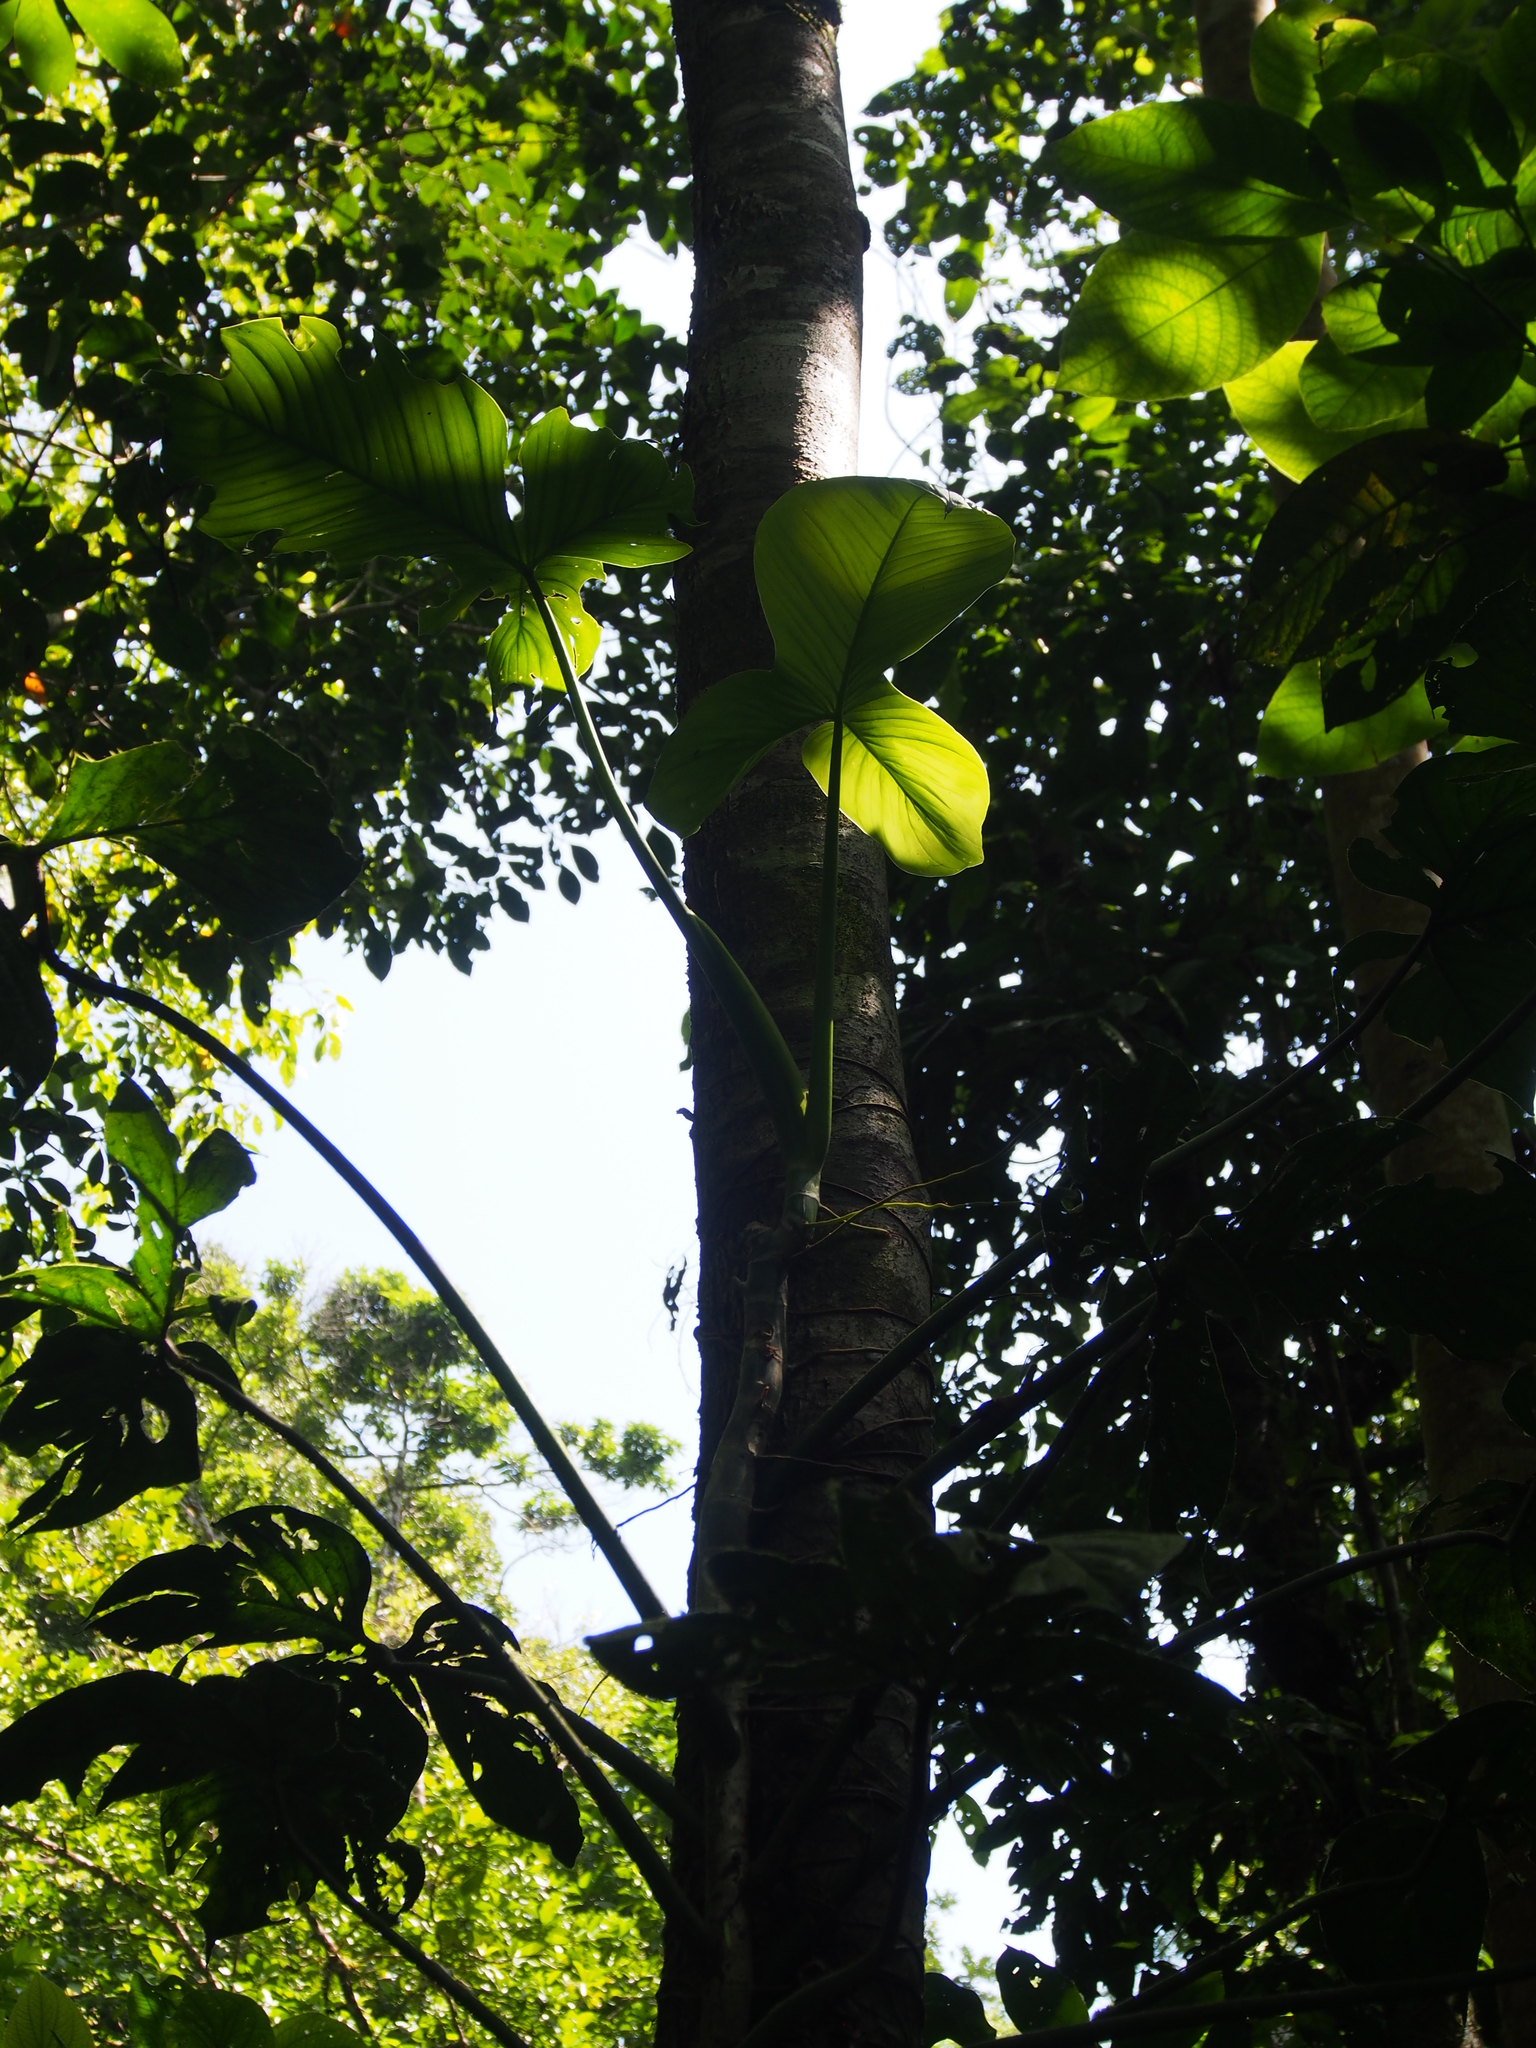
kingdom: Plantae
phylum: Tracheophyta
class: Liliopsida
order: Alismatales
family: Araceae
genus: Philodendron
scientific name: Philodendron rothschuhianum
